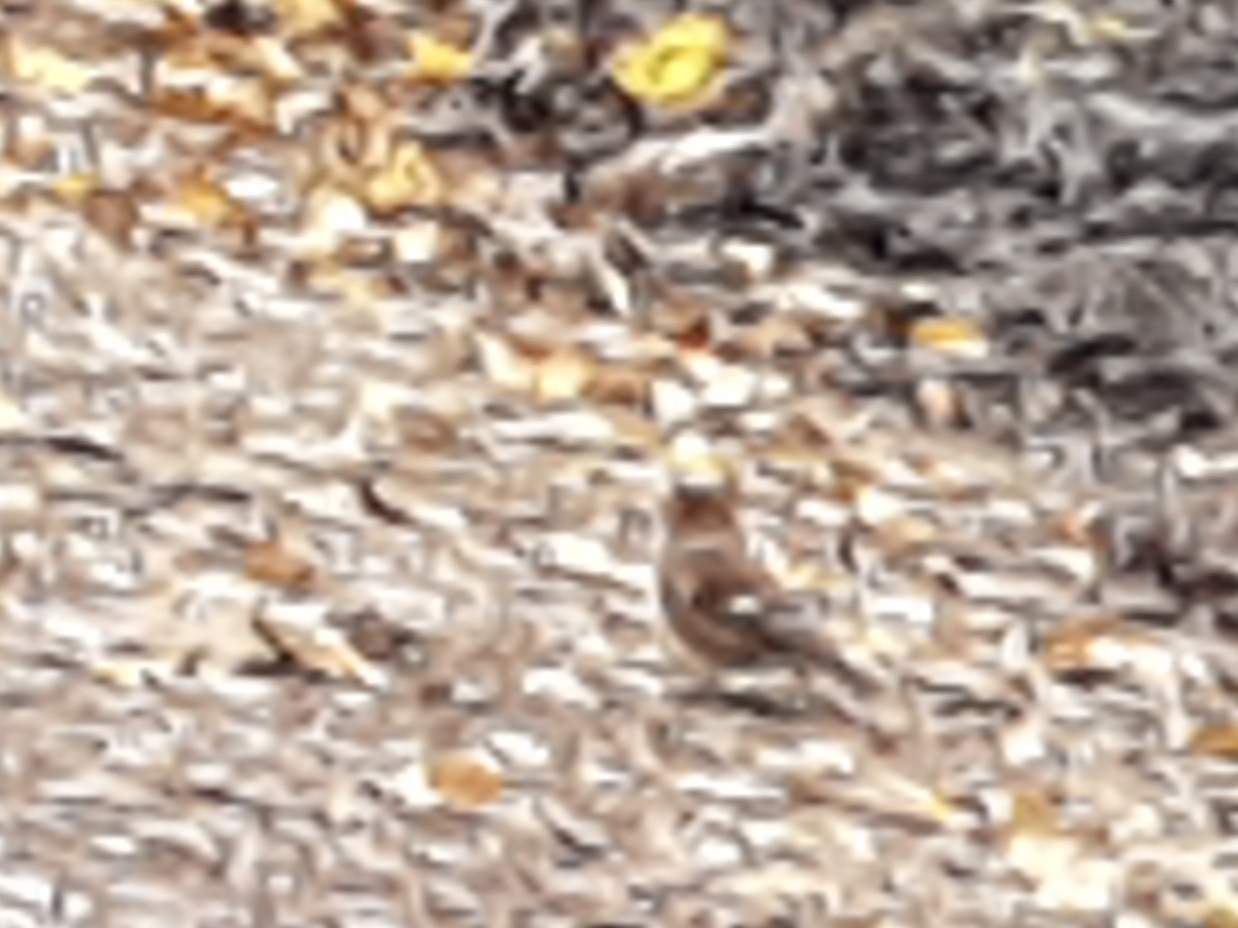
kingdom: Animalia
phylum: Chordata
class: Aves
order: Passeriformes
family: Fringillidae
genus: Fringilla
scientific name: Fringilla coelebs
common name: Common chaffinch
